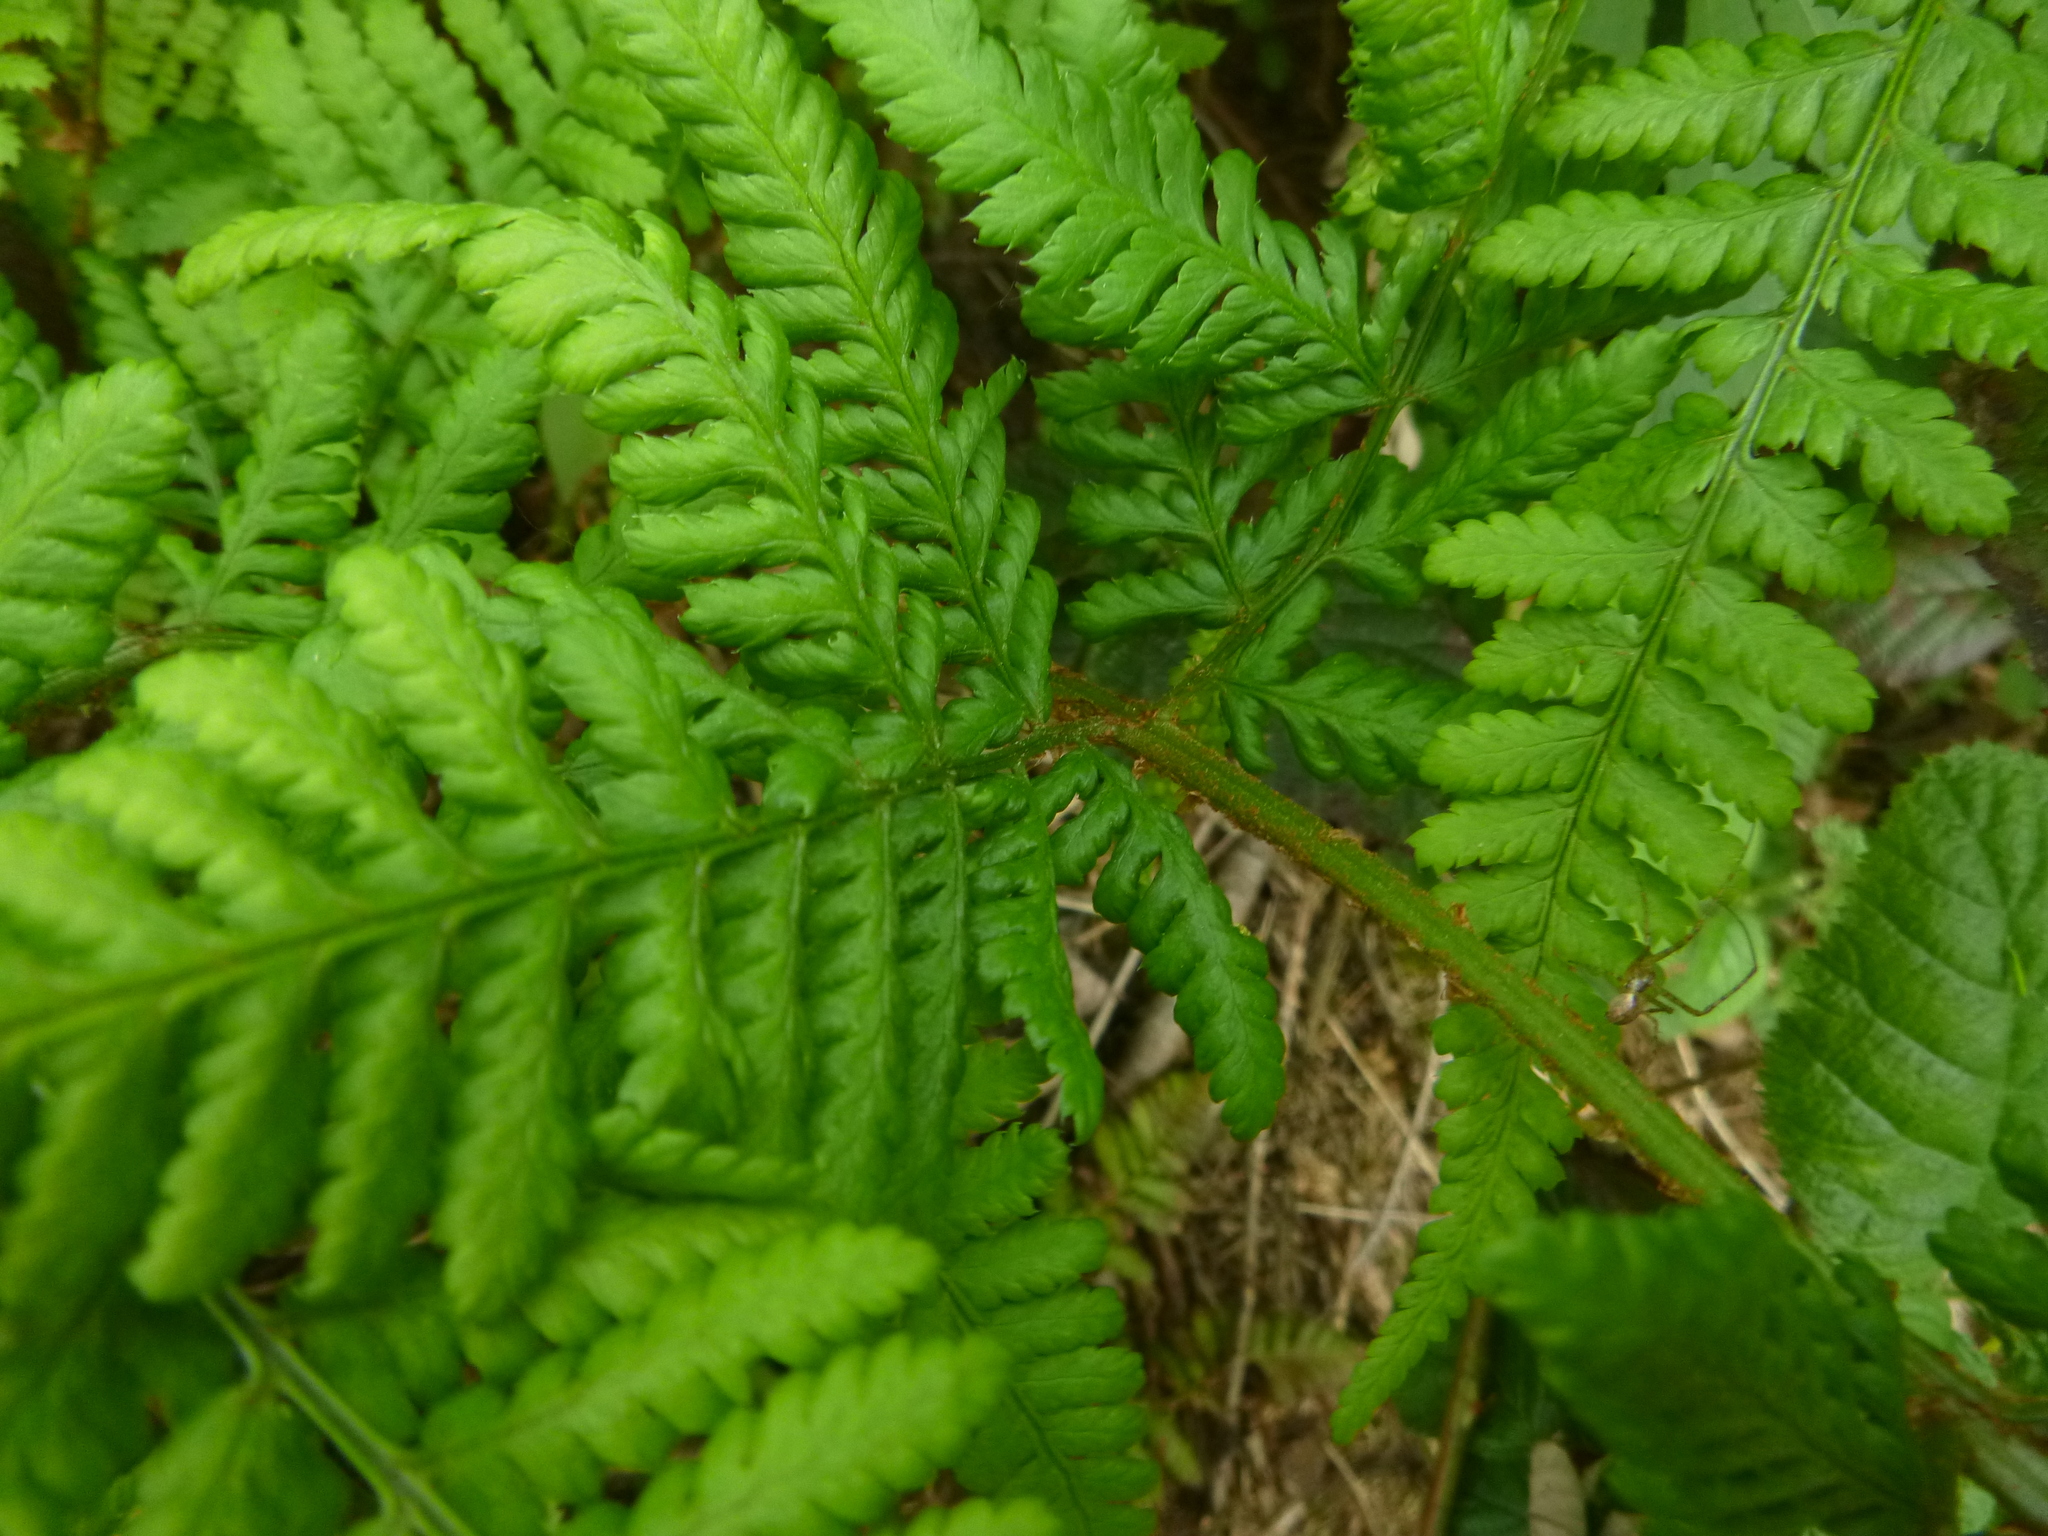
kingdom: Plantae
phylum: Tracheophyta
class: Polypodiopsida
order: Polypodiales
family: Dryopteridaceae
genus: Dryopteris
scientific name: Dryopteris dilatata
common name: Broad buckler-fern
